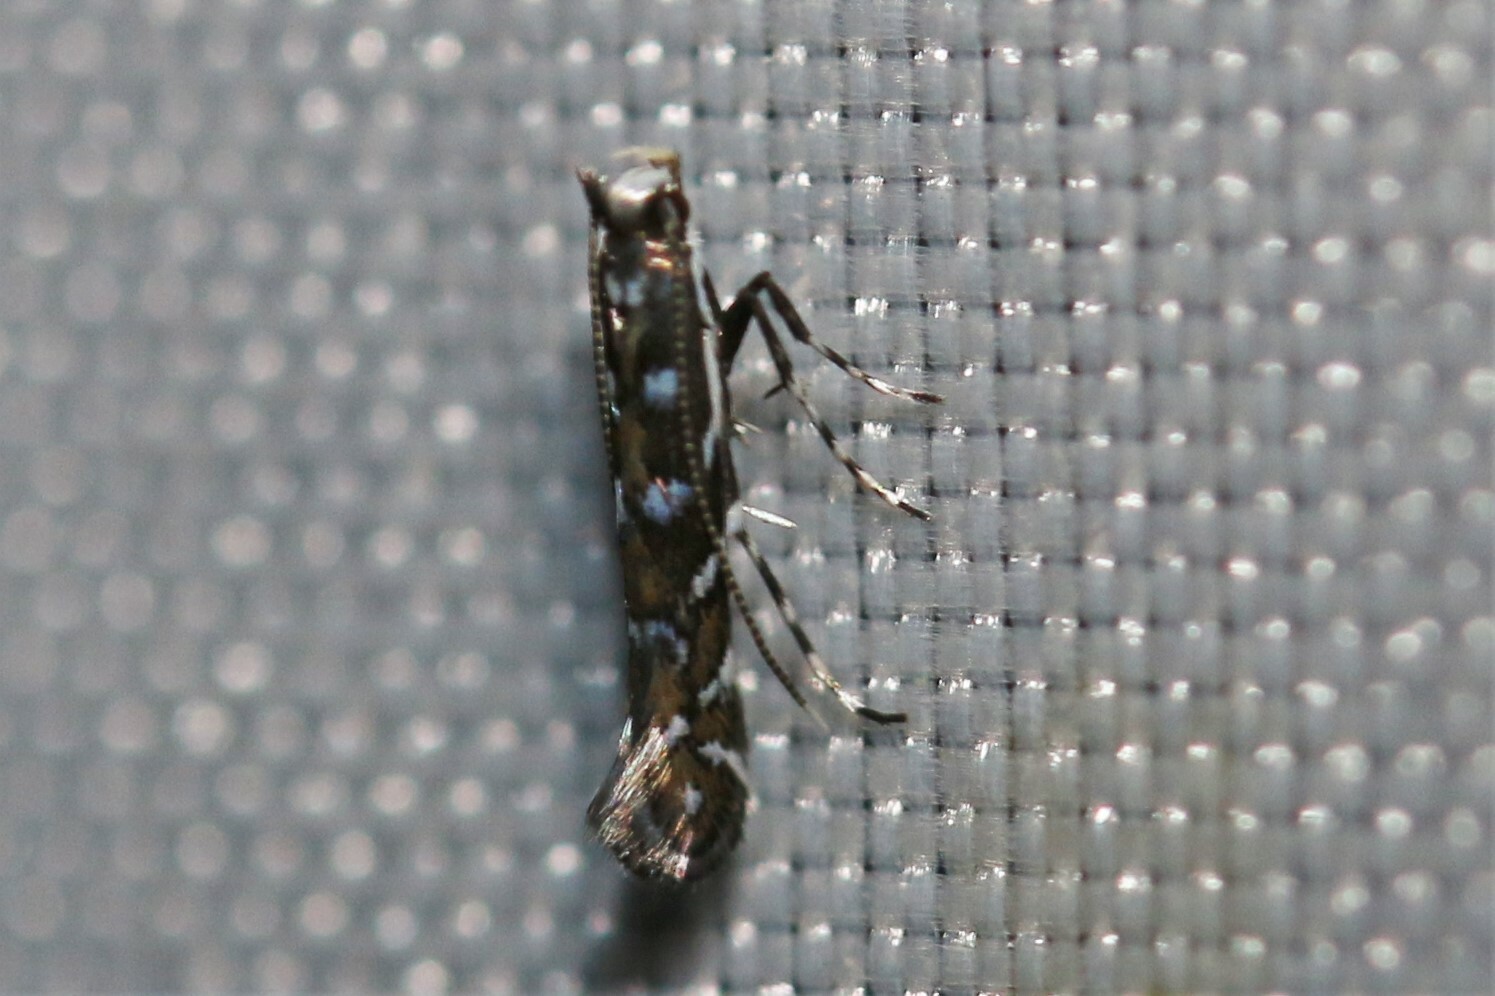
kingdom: Animalia
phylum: Arthropoda
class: Insecta
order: Lepidoptera
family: Gracillariidae
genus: Parectopa
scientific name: Parectopa ononidis
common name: Clover slender
